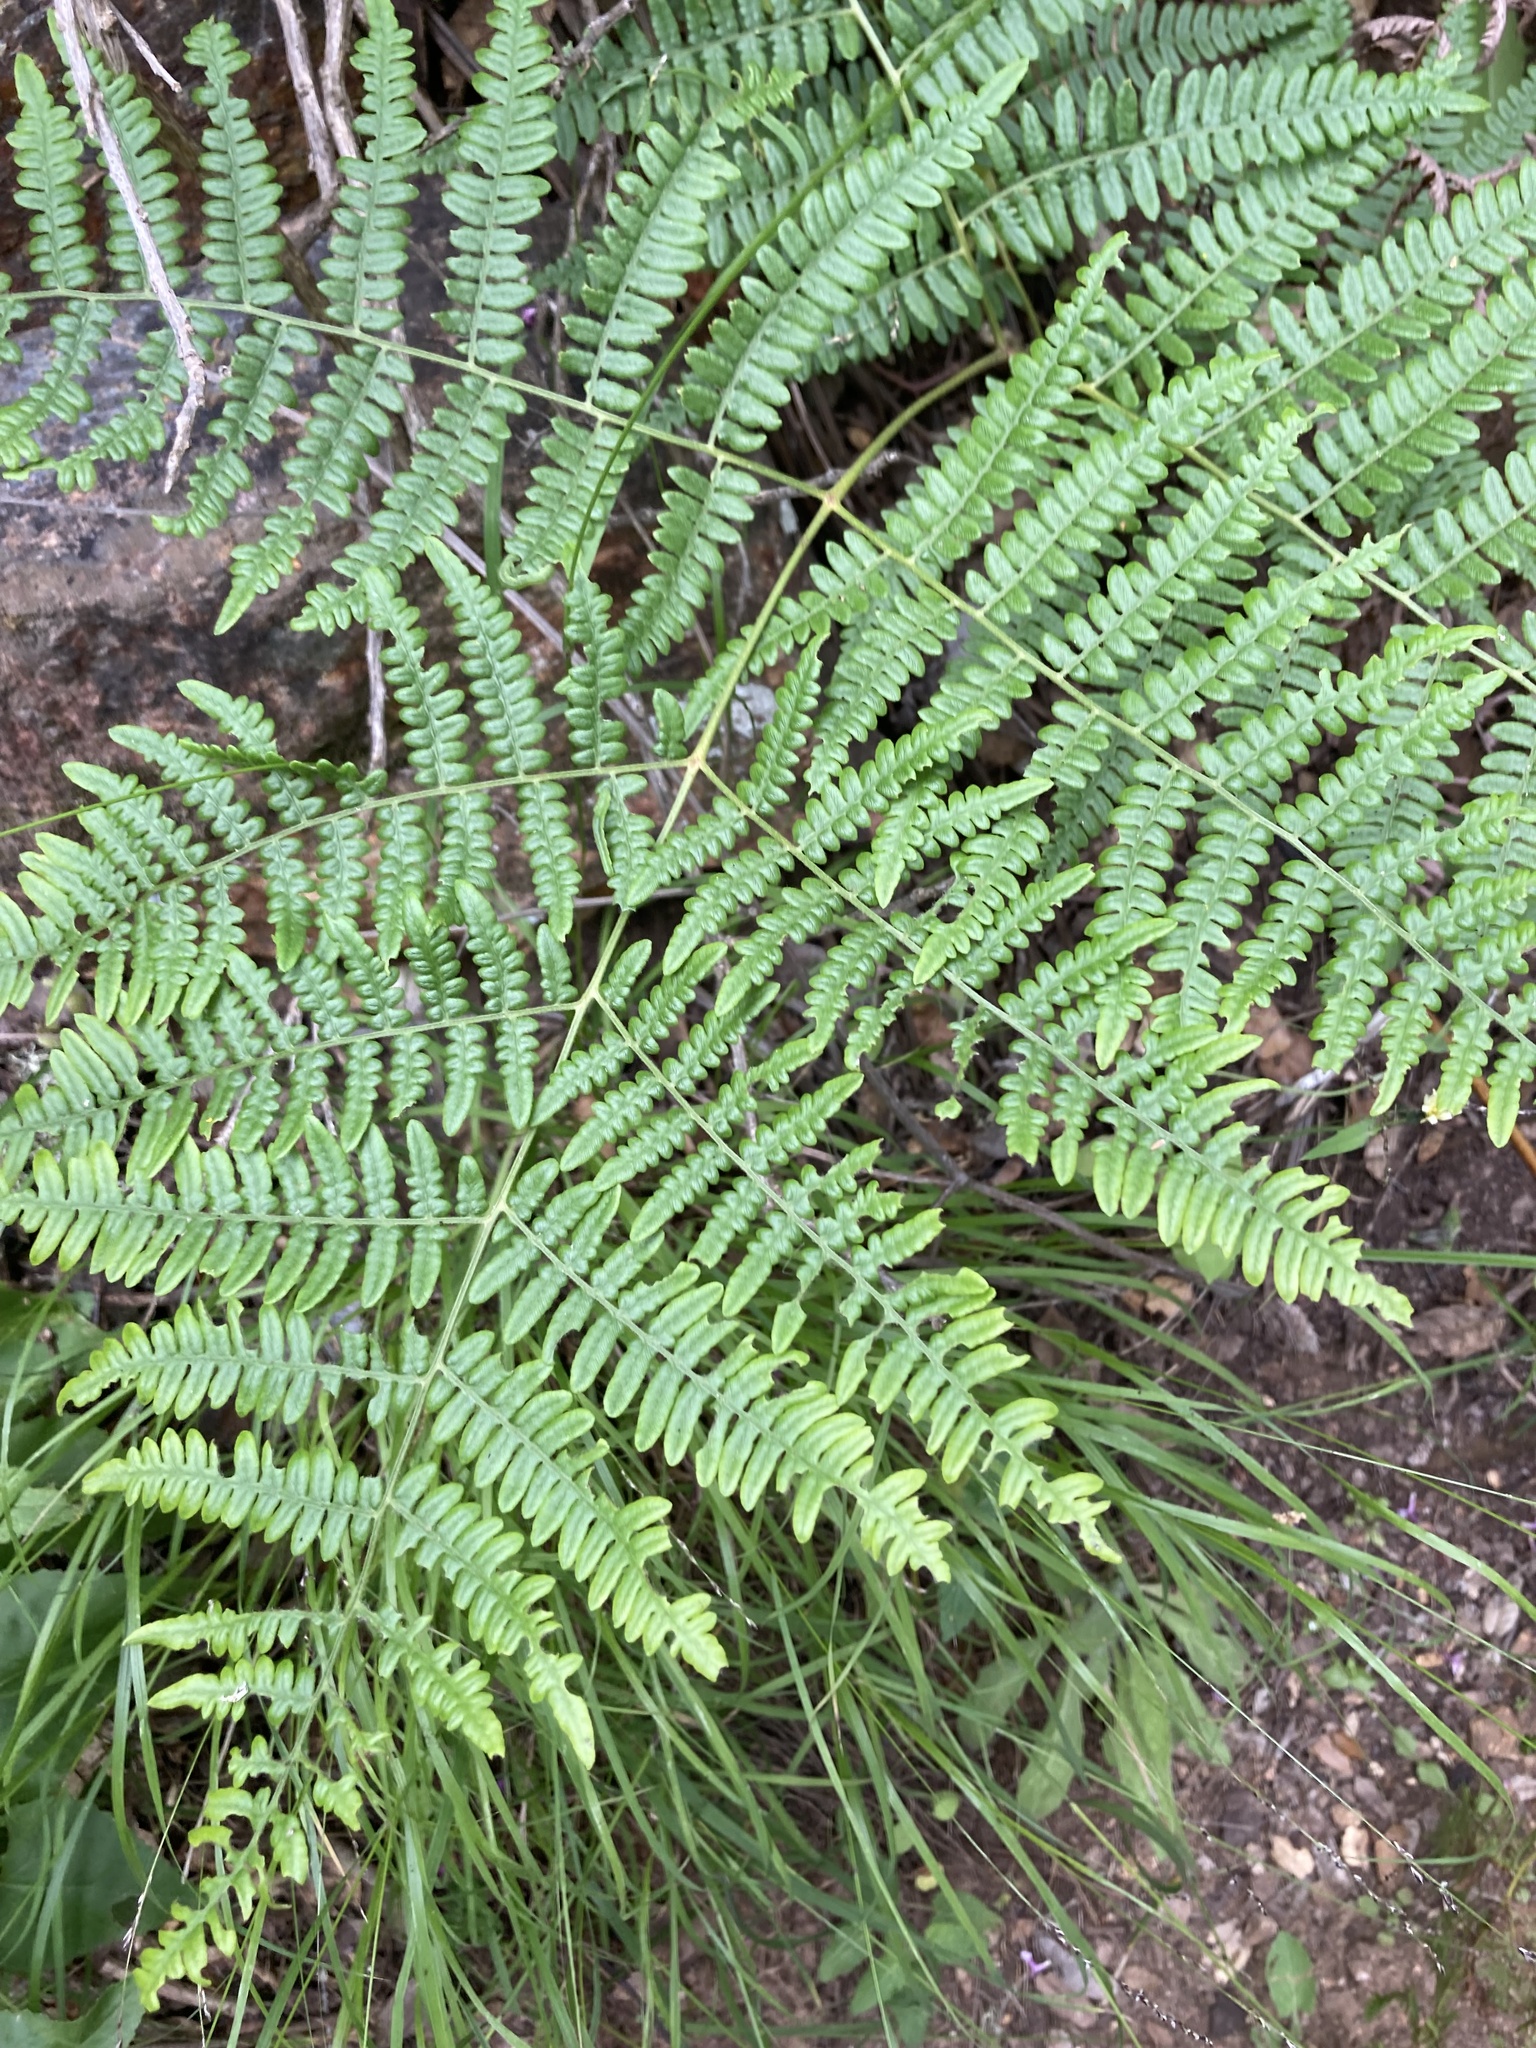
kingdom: Plantae
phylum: Tracheophyta
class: Polypodiopsida
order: Polypodiales
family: Dennstaedtiaceae
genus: Pteridium
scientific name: Pteridium aquilinum
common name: Bracken
